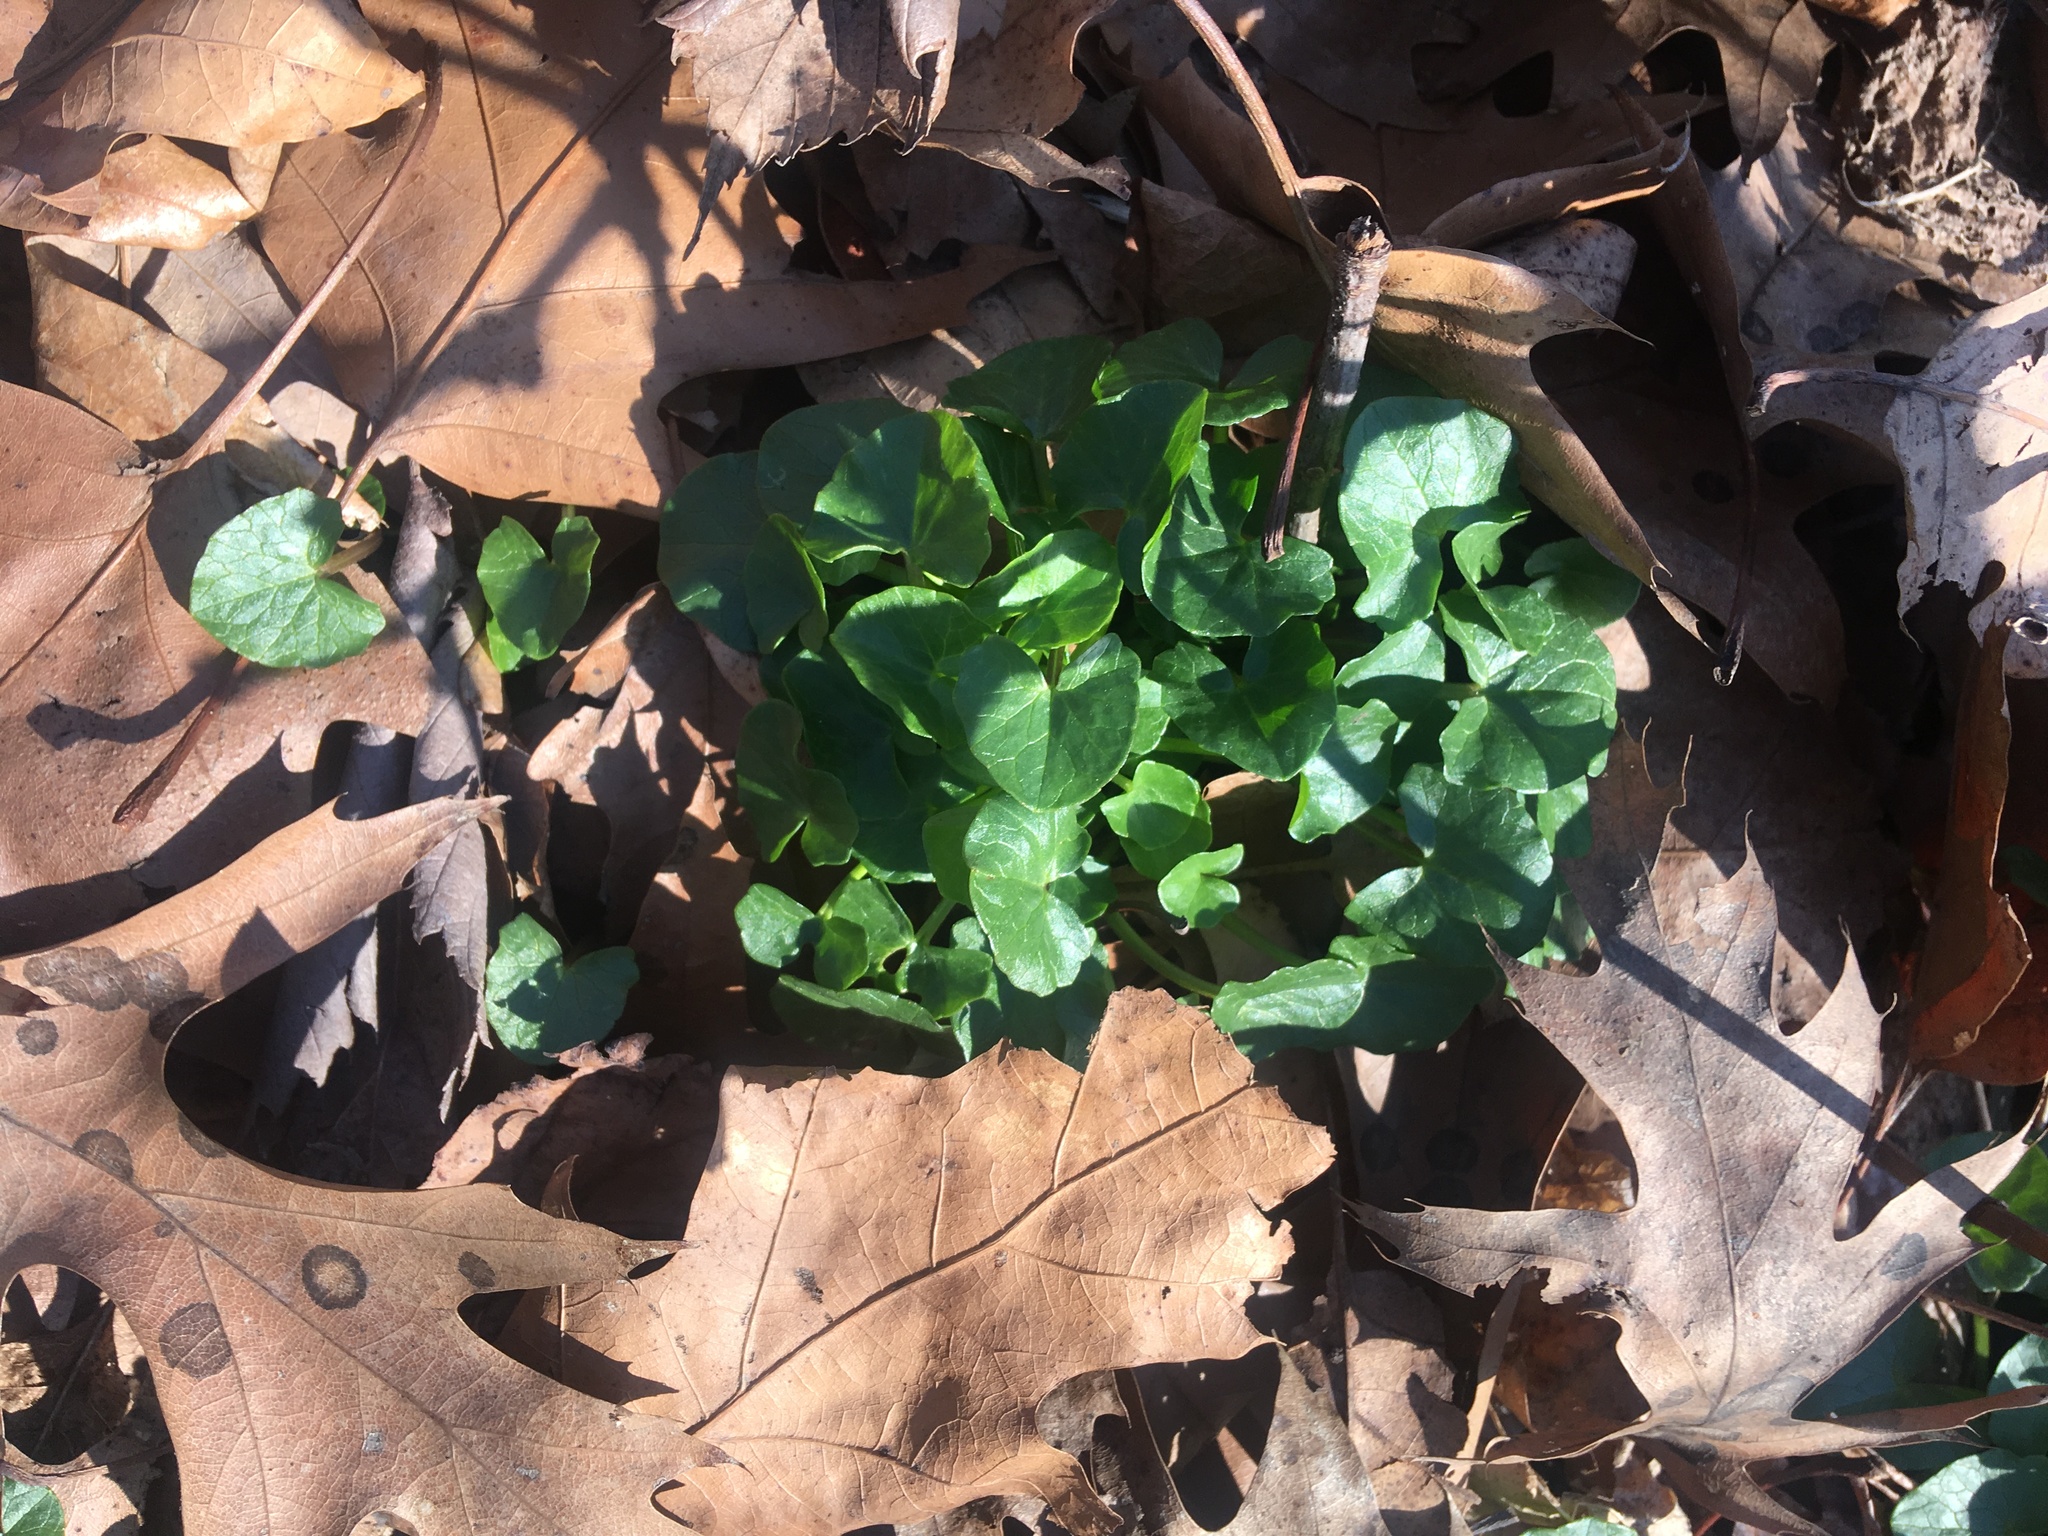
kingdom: Plantae
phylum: Tracheophyta
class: Magnoliopsida
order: Ranunculales
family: Ranunculaceae
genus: Ficaria
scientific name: Ficaria verna
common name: Lesser celandine
